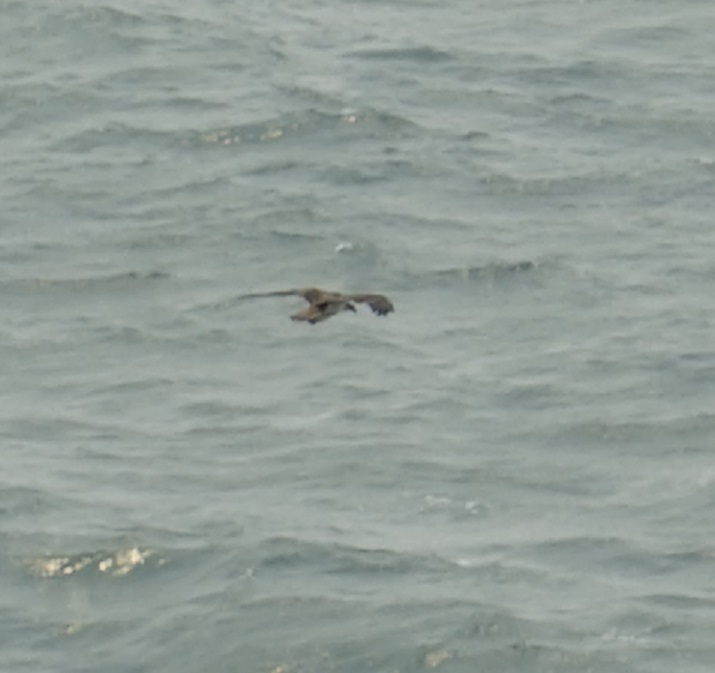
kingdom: Animalia
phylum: Chordata
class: Aves
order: Accipitriformes
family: Pandionidae
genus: Pandion
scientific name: Pandion haliaetus
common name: Osprey
